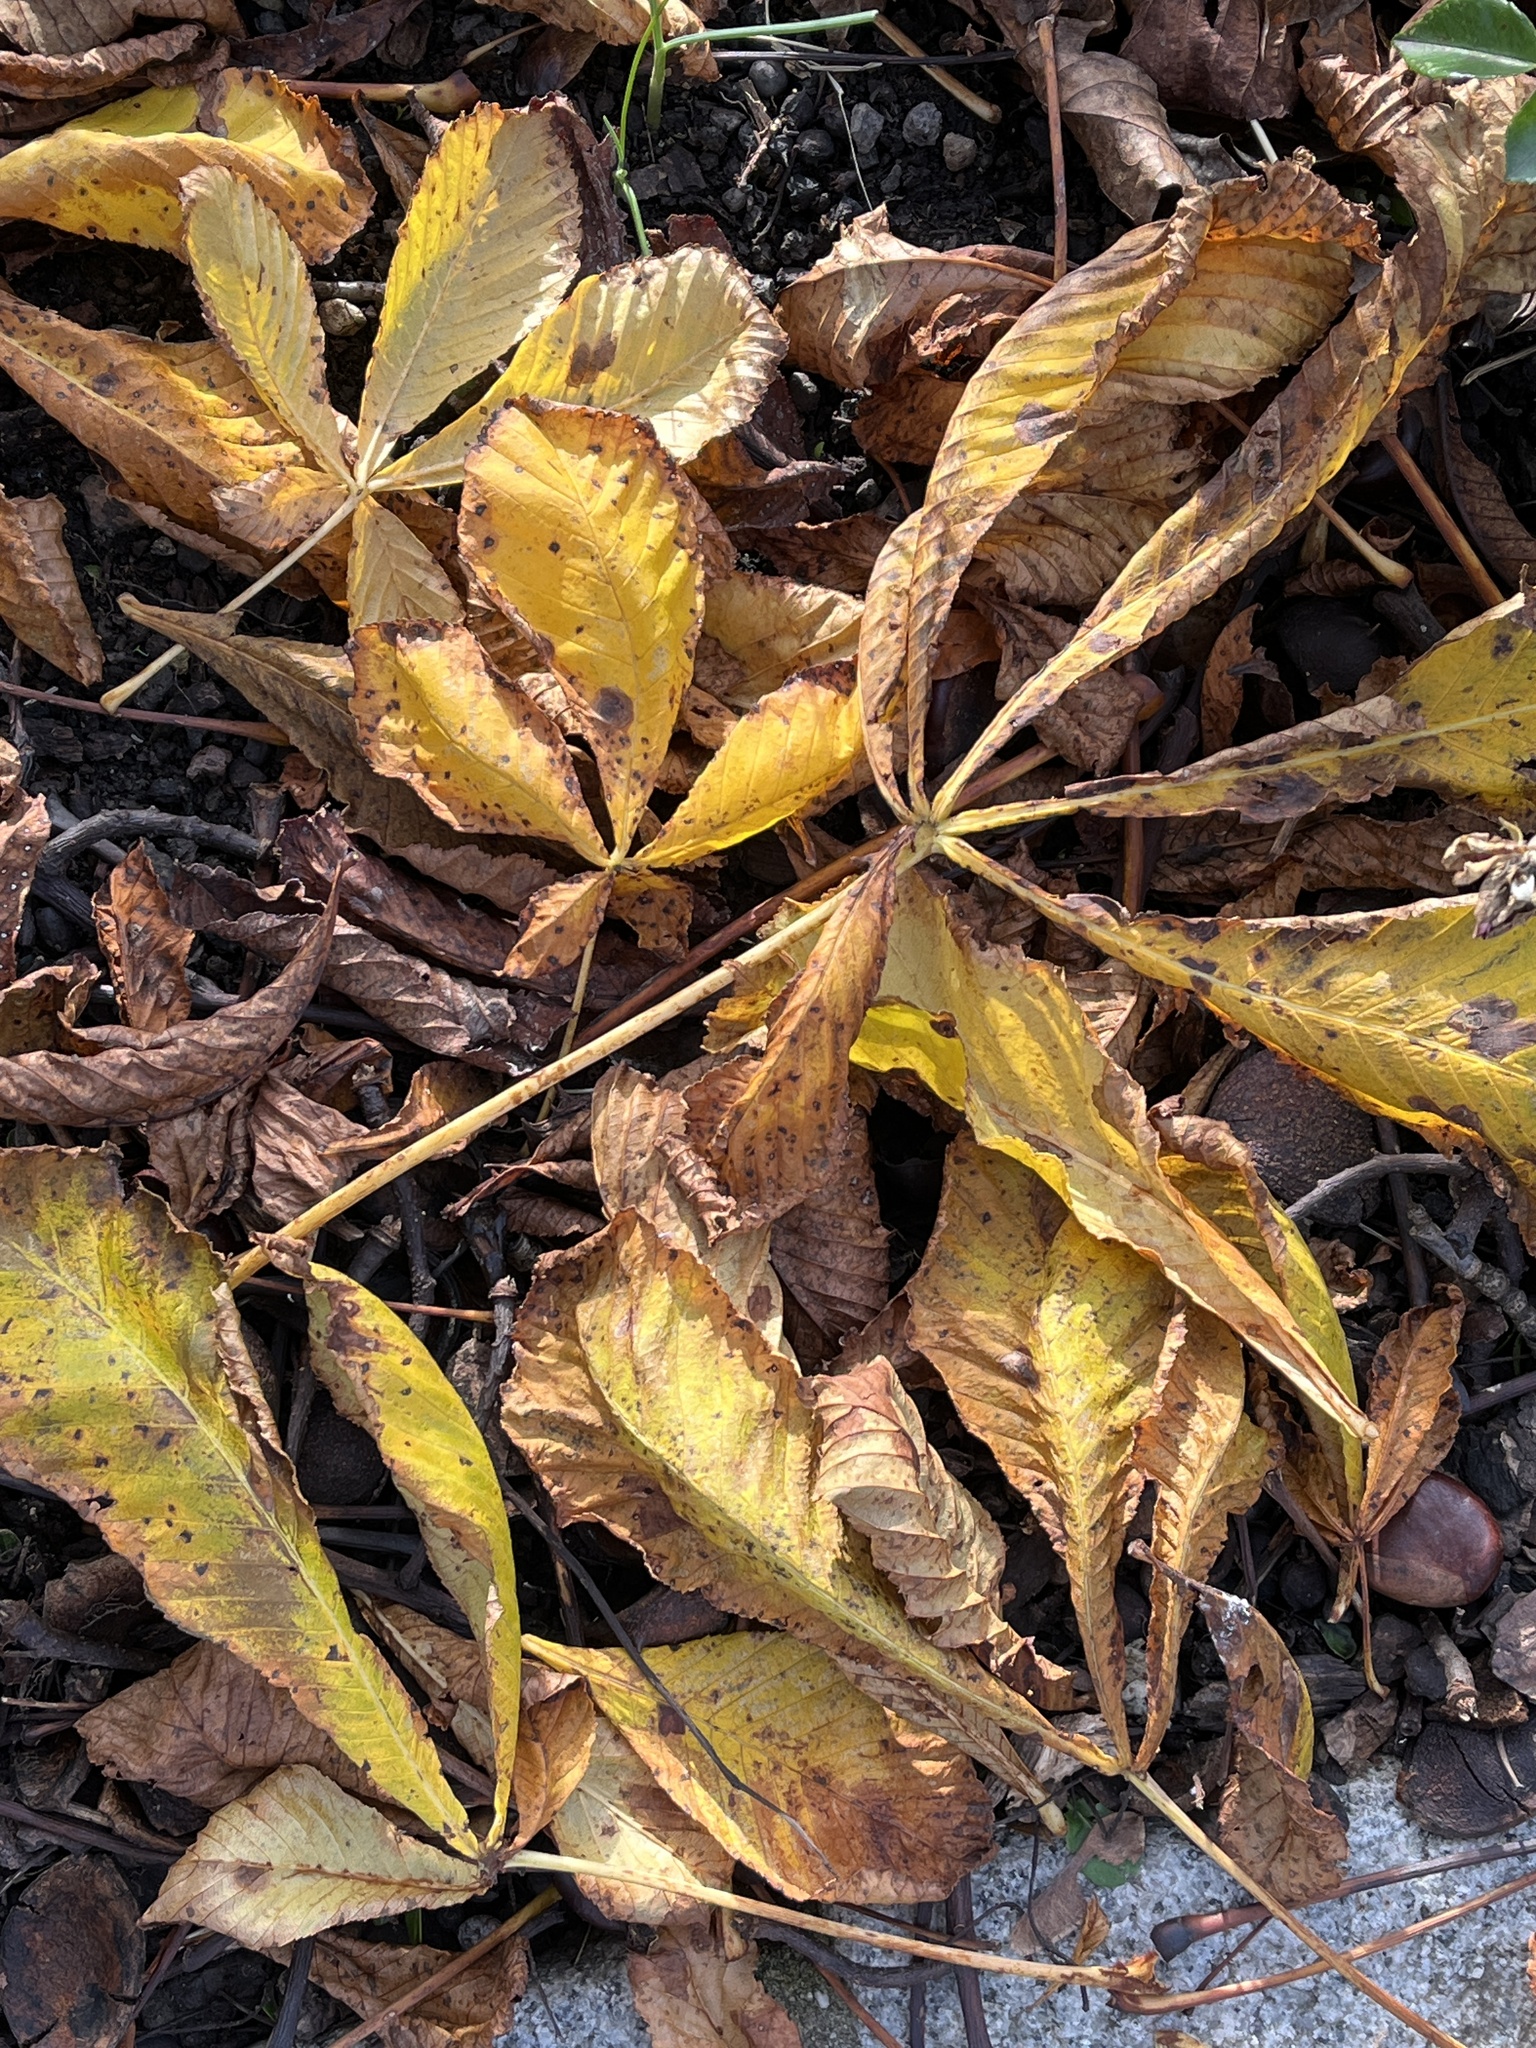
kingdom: Plantae
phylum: Tracheophyta
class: Magnoliopsida
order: Sapindales
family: Sapindaceae
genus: Aesculus
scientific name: Aesculus hippocastanum
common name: Horse-chestnut
